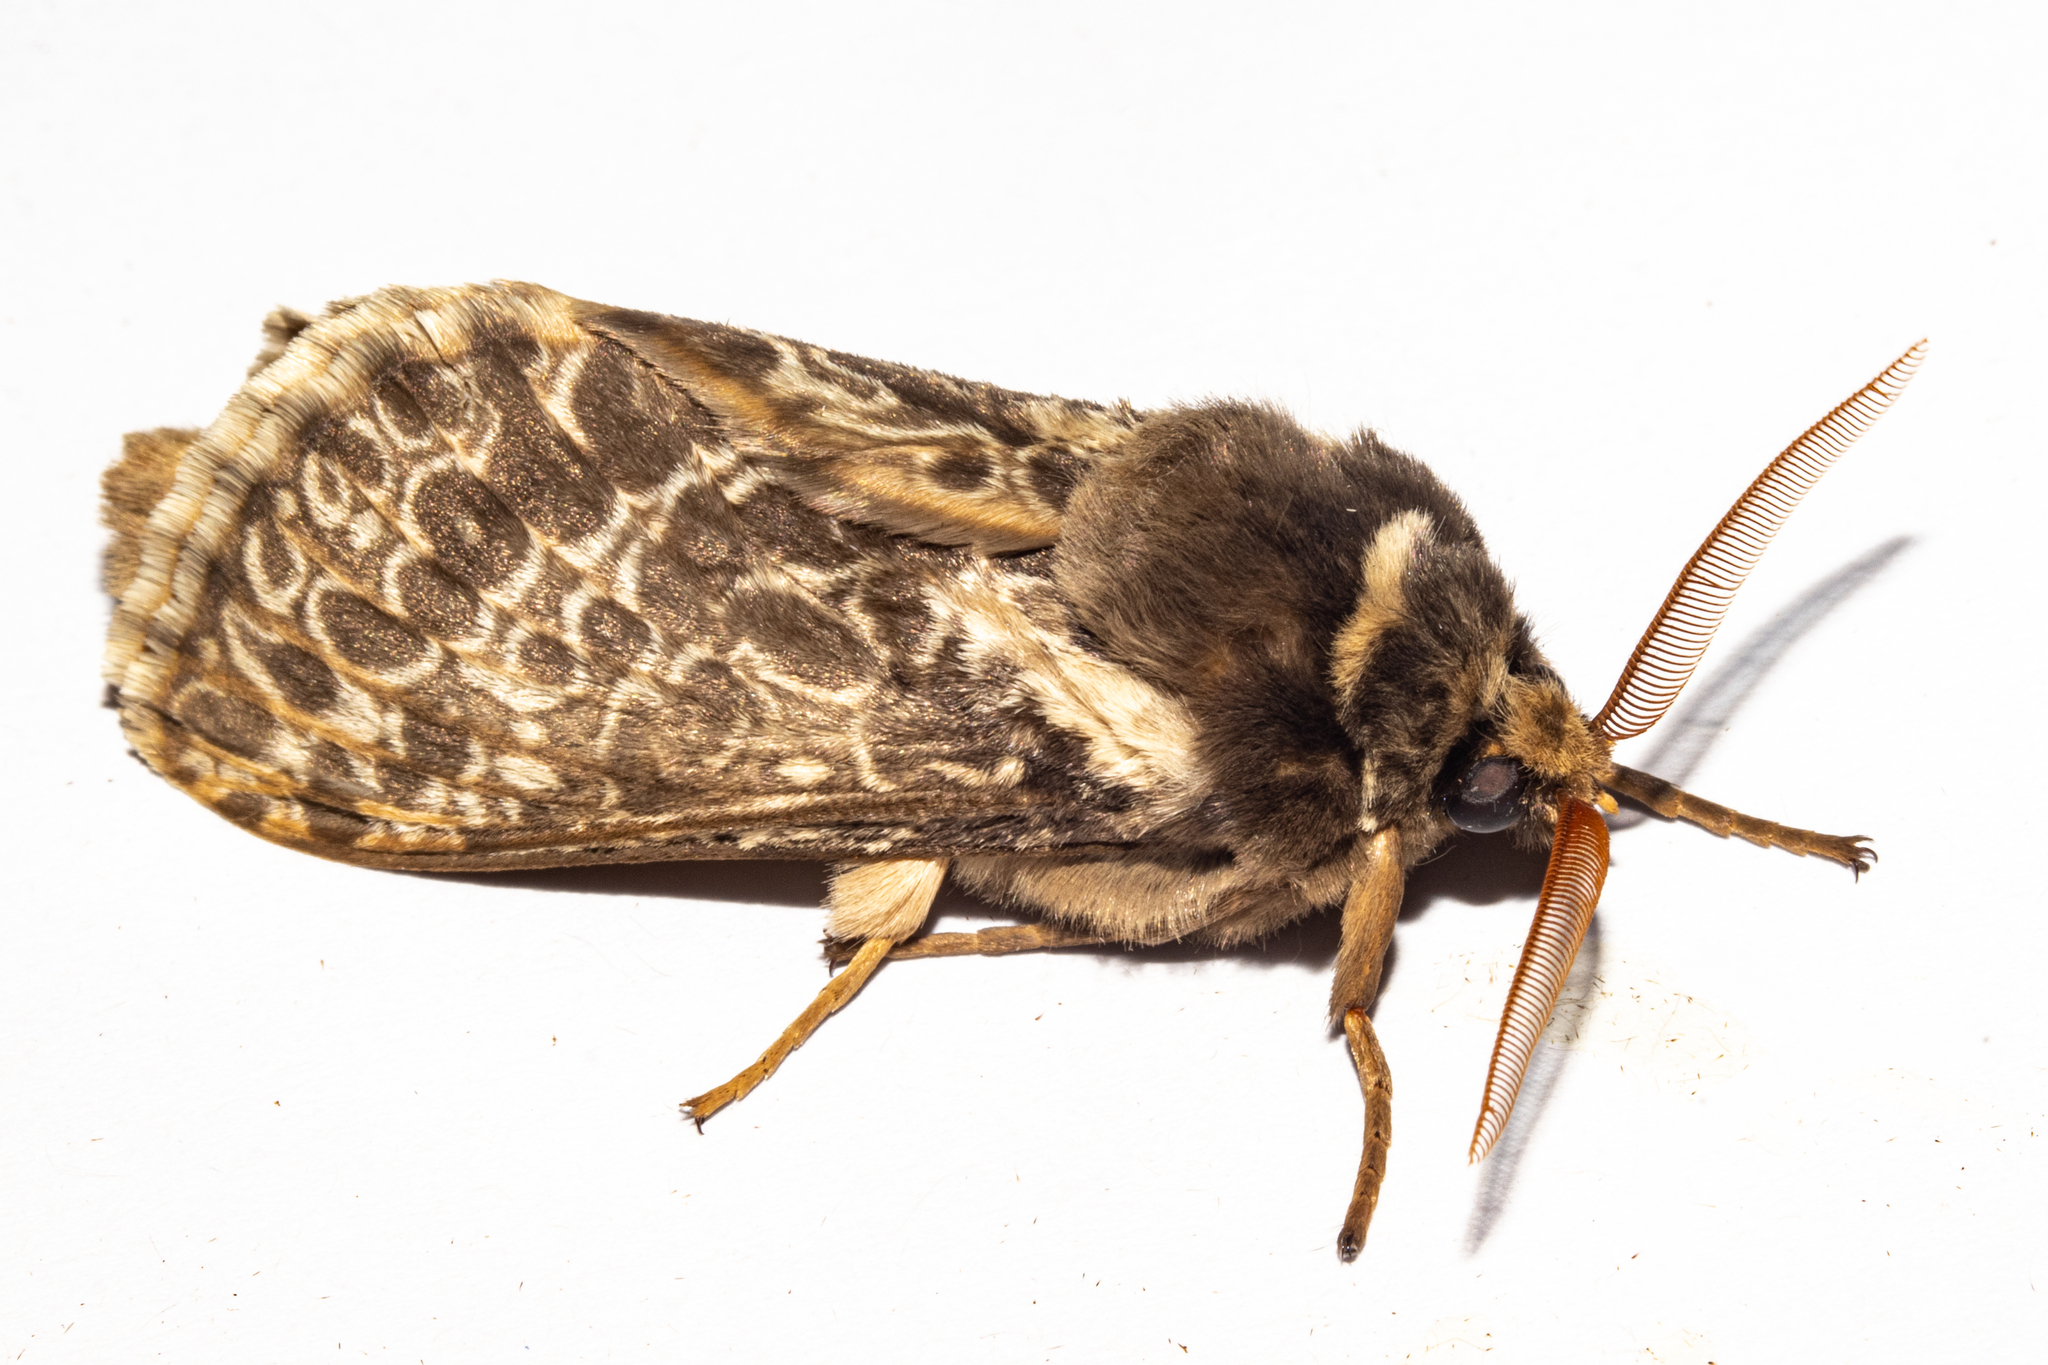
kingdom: Animalia
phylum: Arthropoda
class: Insecta
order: Lepidoptera
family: Hepialidae
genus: Aoraia
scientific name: Aoraia rufivena
